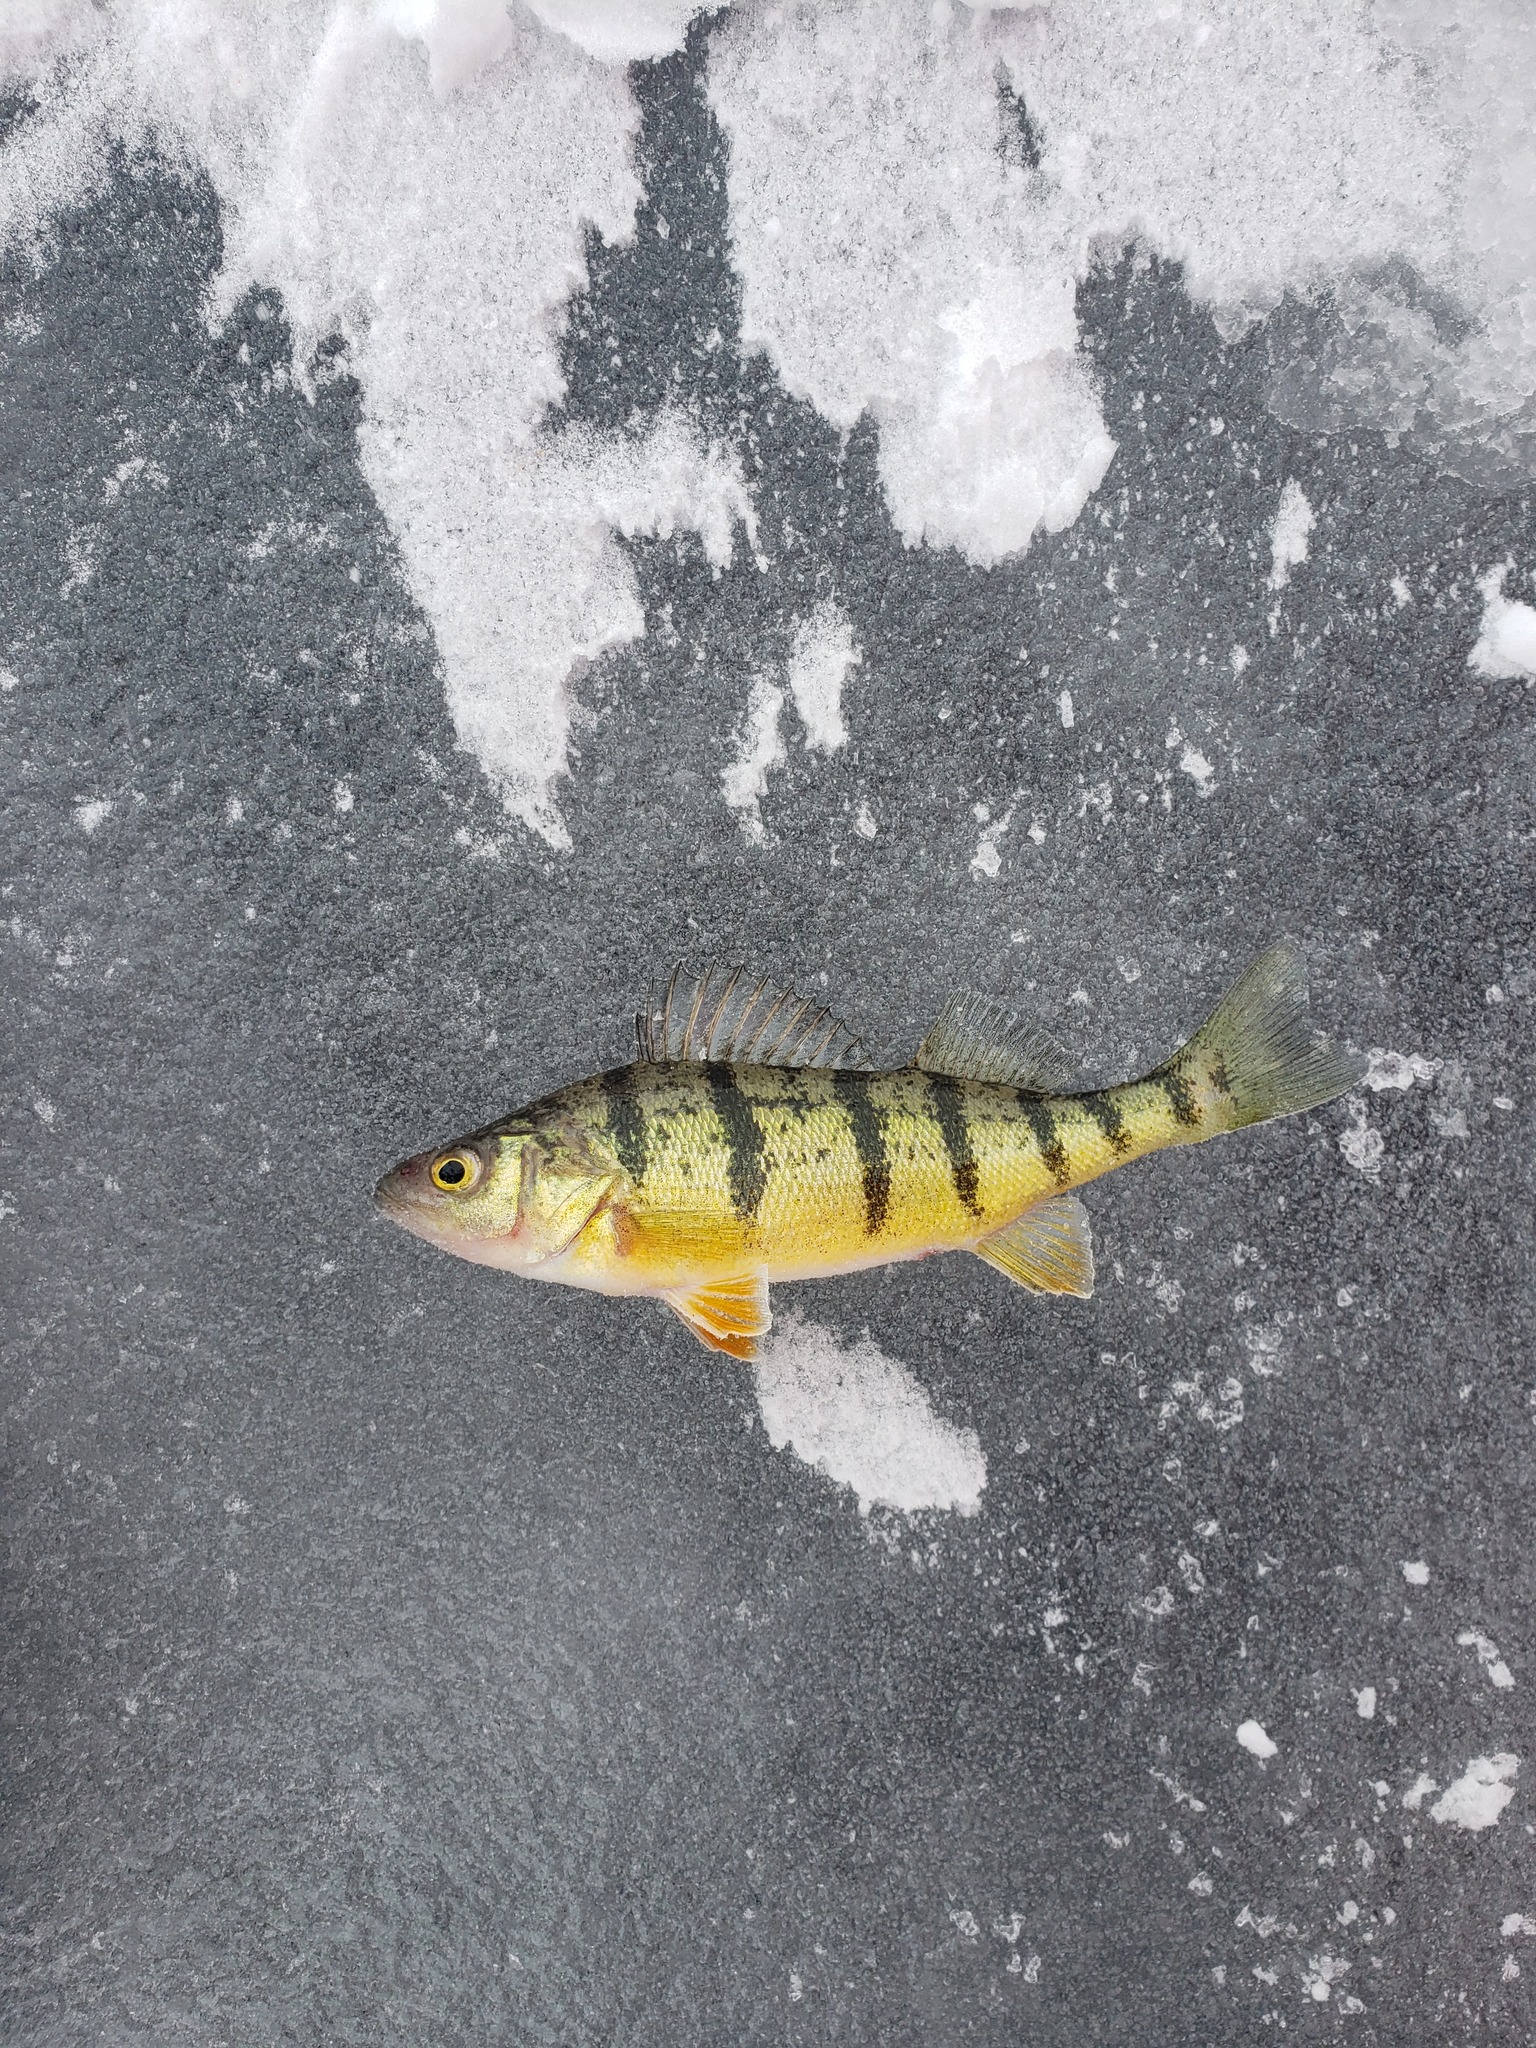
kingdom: Animalia
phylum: Chordata
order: Perciformes
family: Percidae
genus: Perca
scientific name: Perca flavescens
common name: Yellow perch
